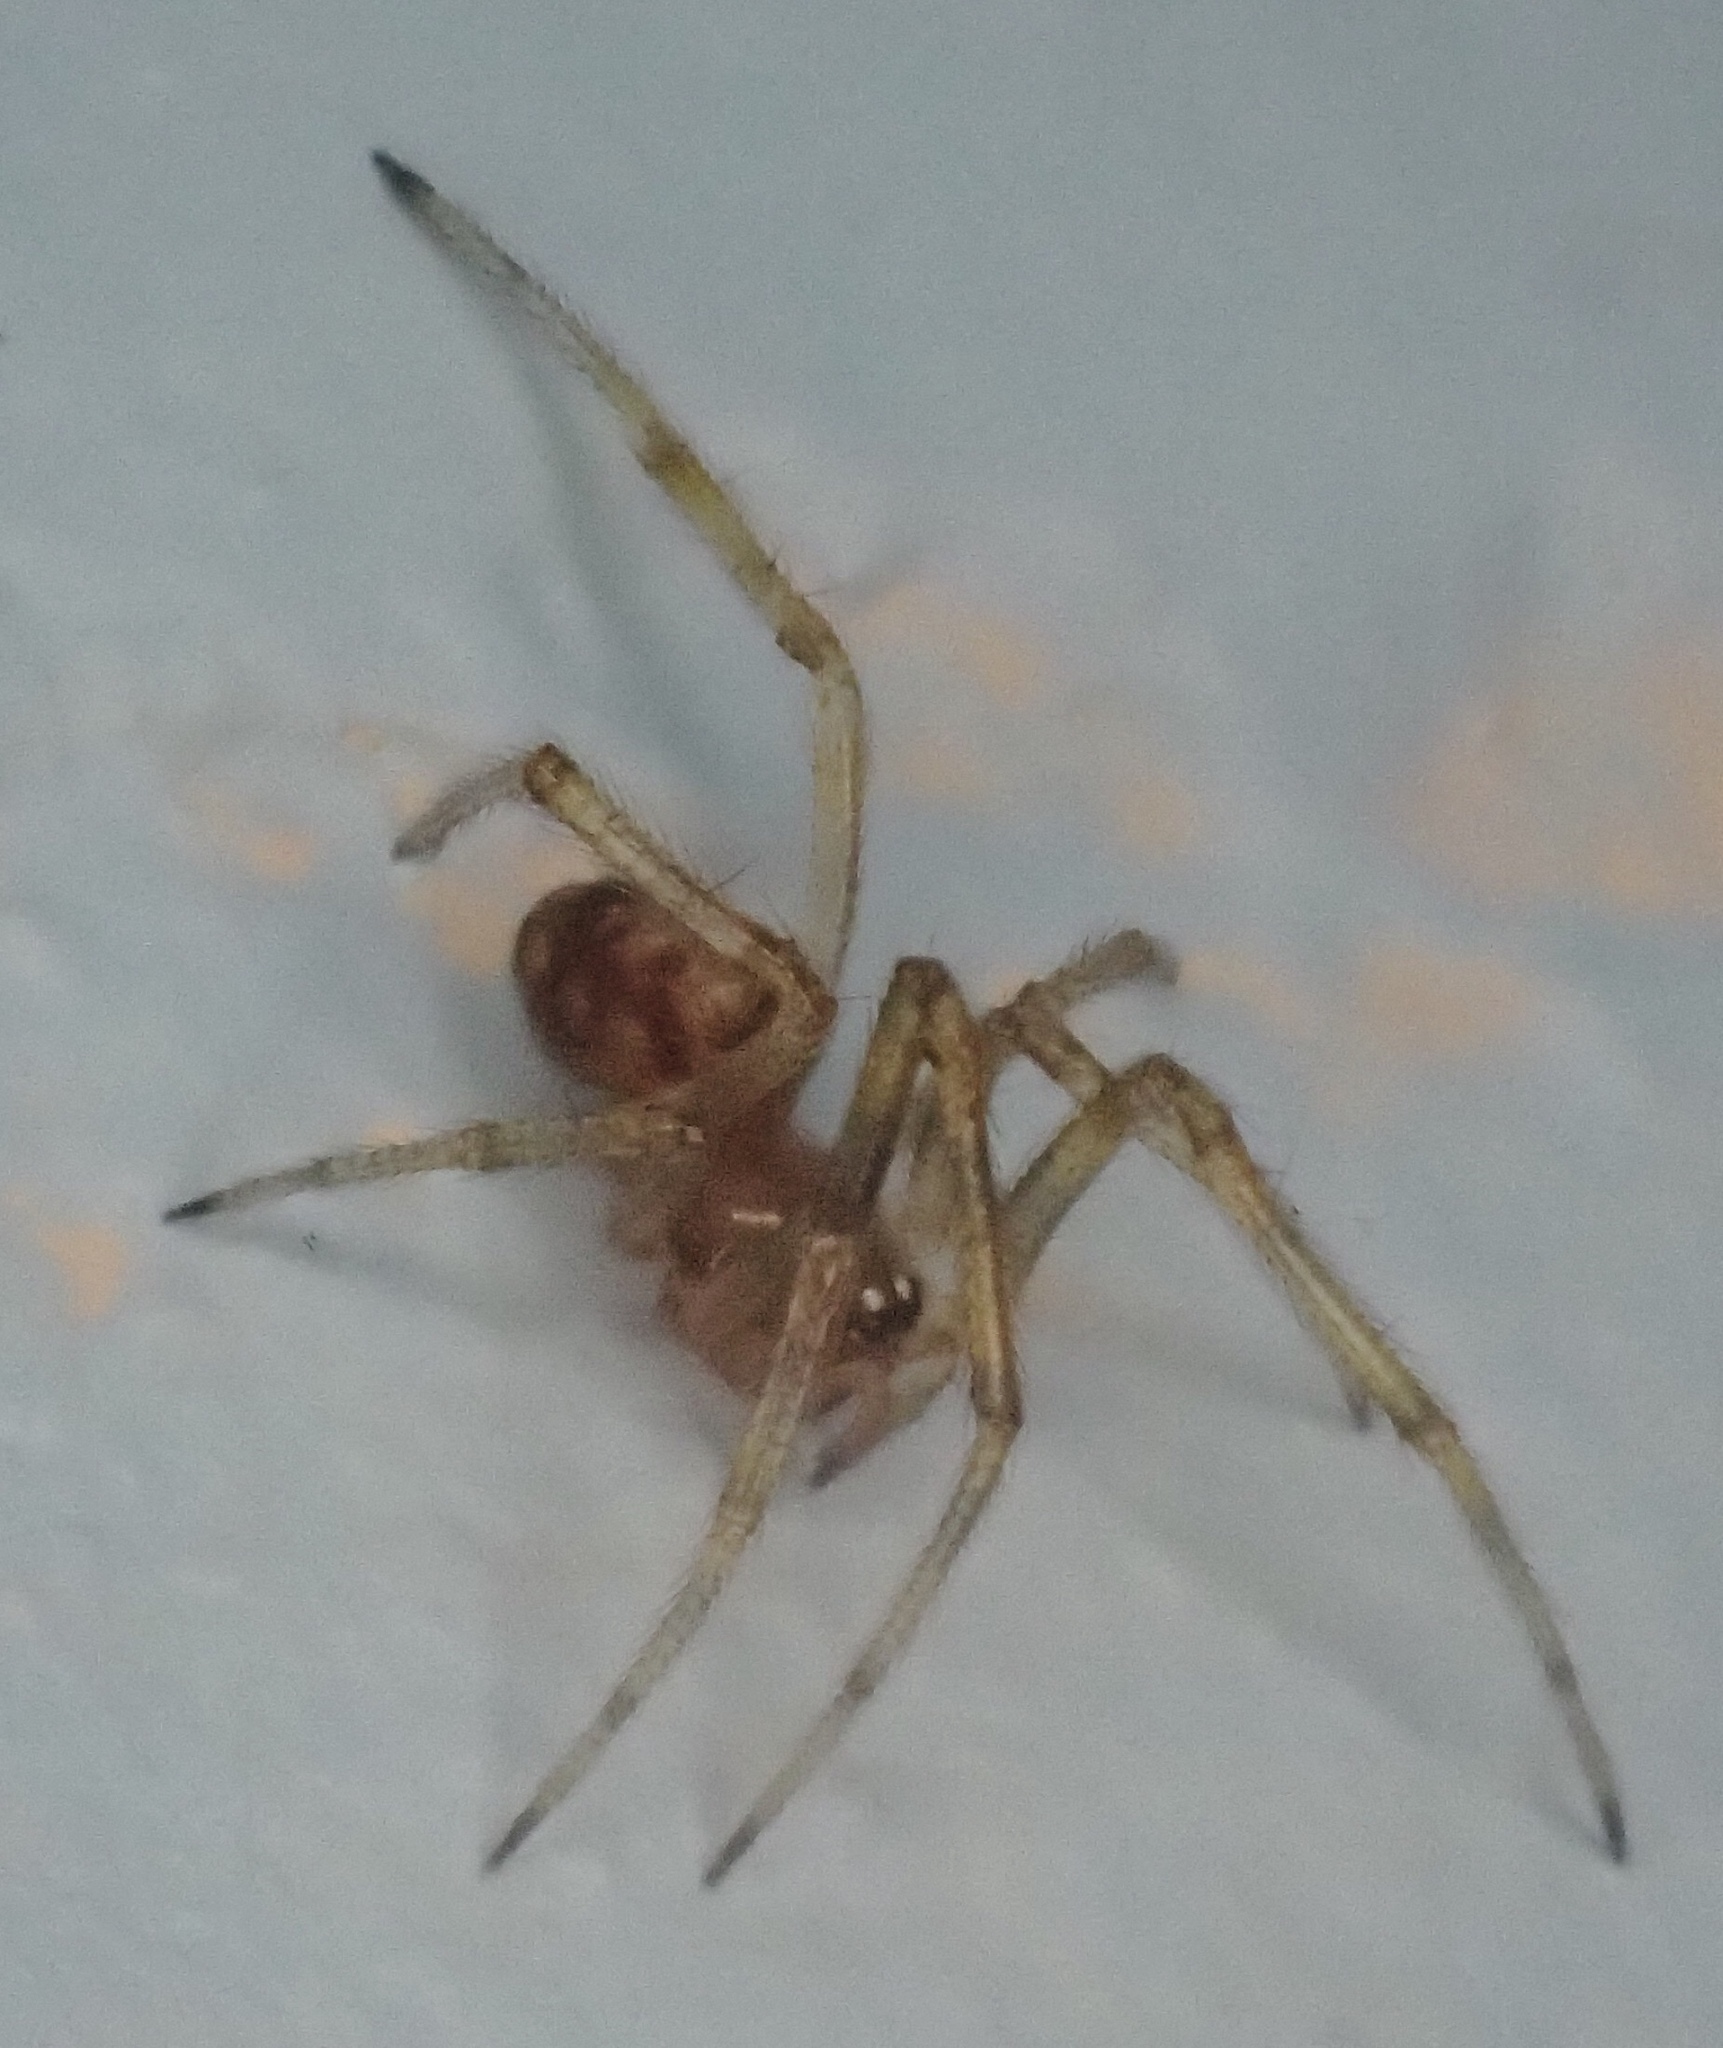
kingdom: Animalia
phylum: Arthropoda
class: Arachnida
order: Araneae
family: Theridiidae
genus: Steatoda
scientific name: Steatoda triangulosa
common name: Triangulate bud spider
